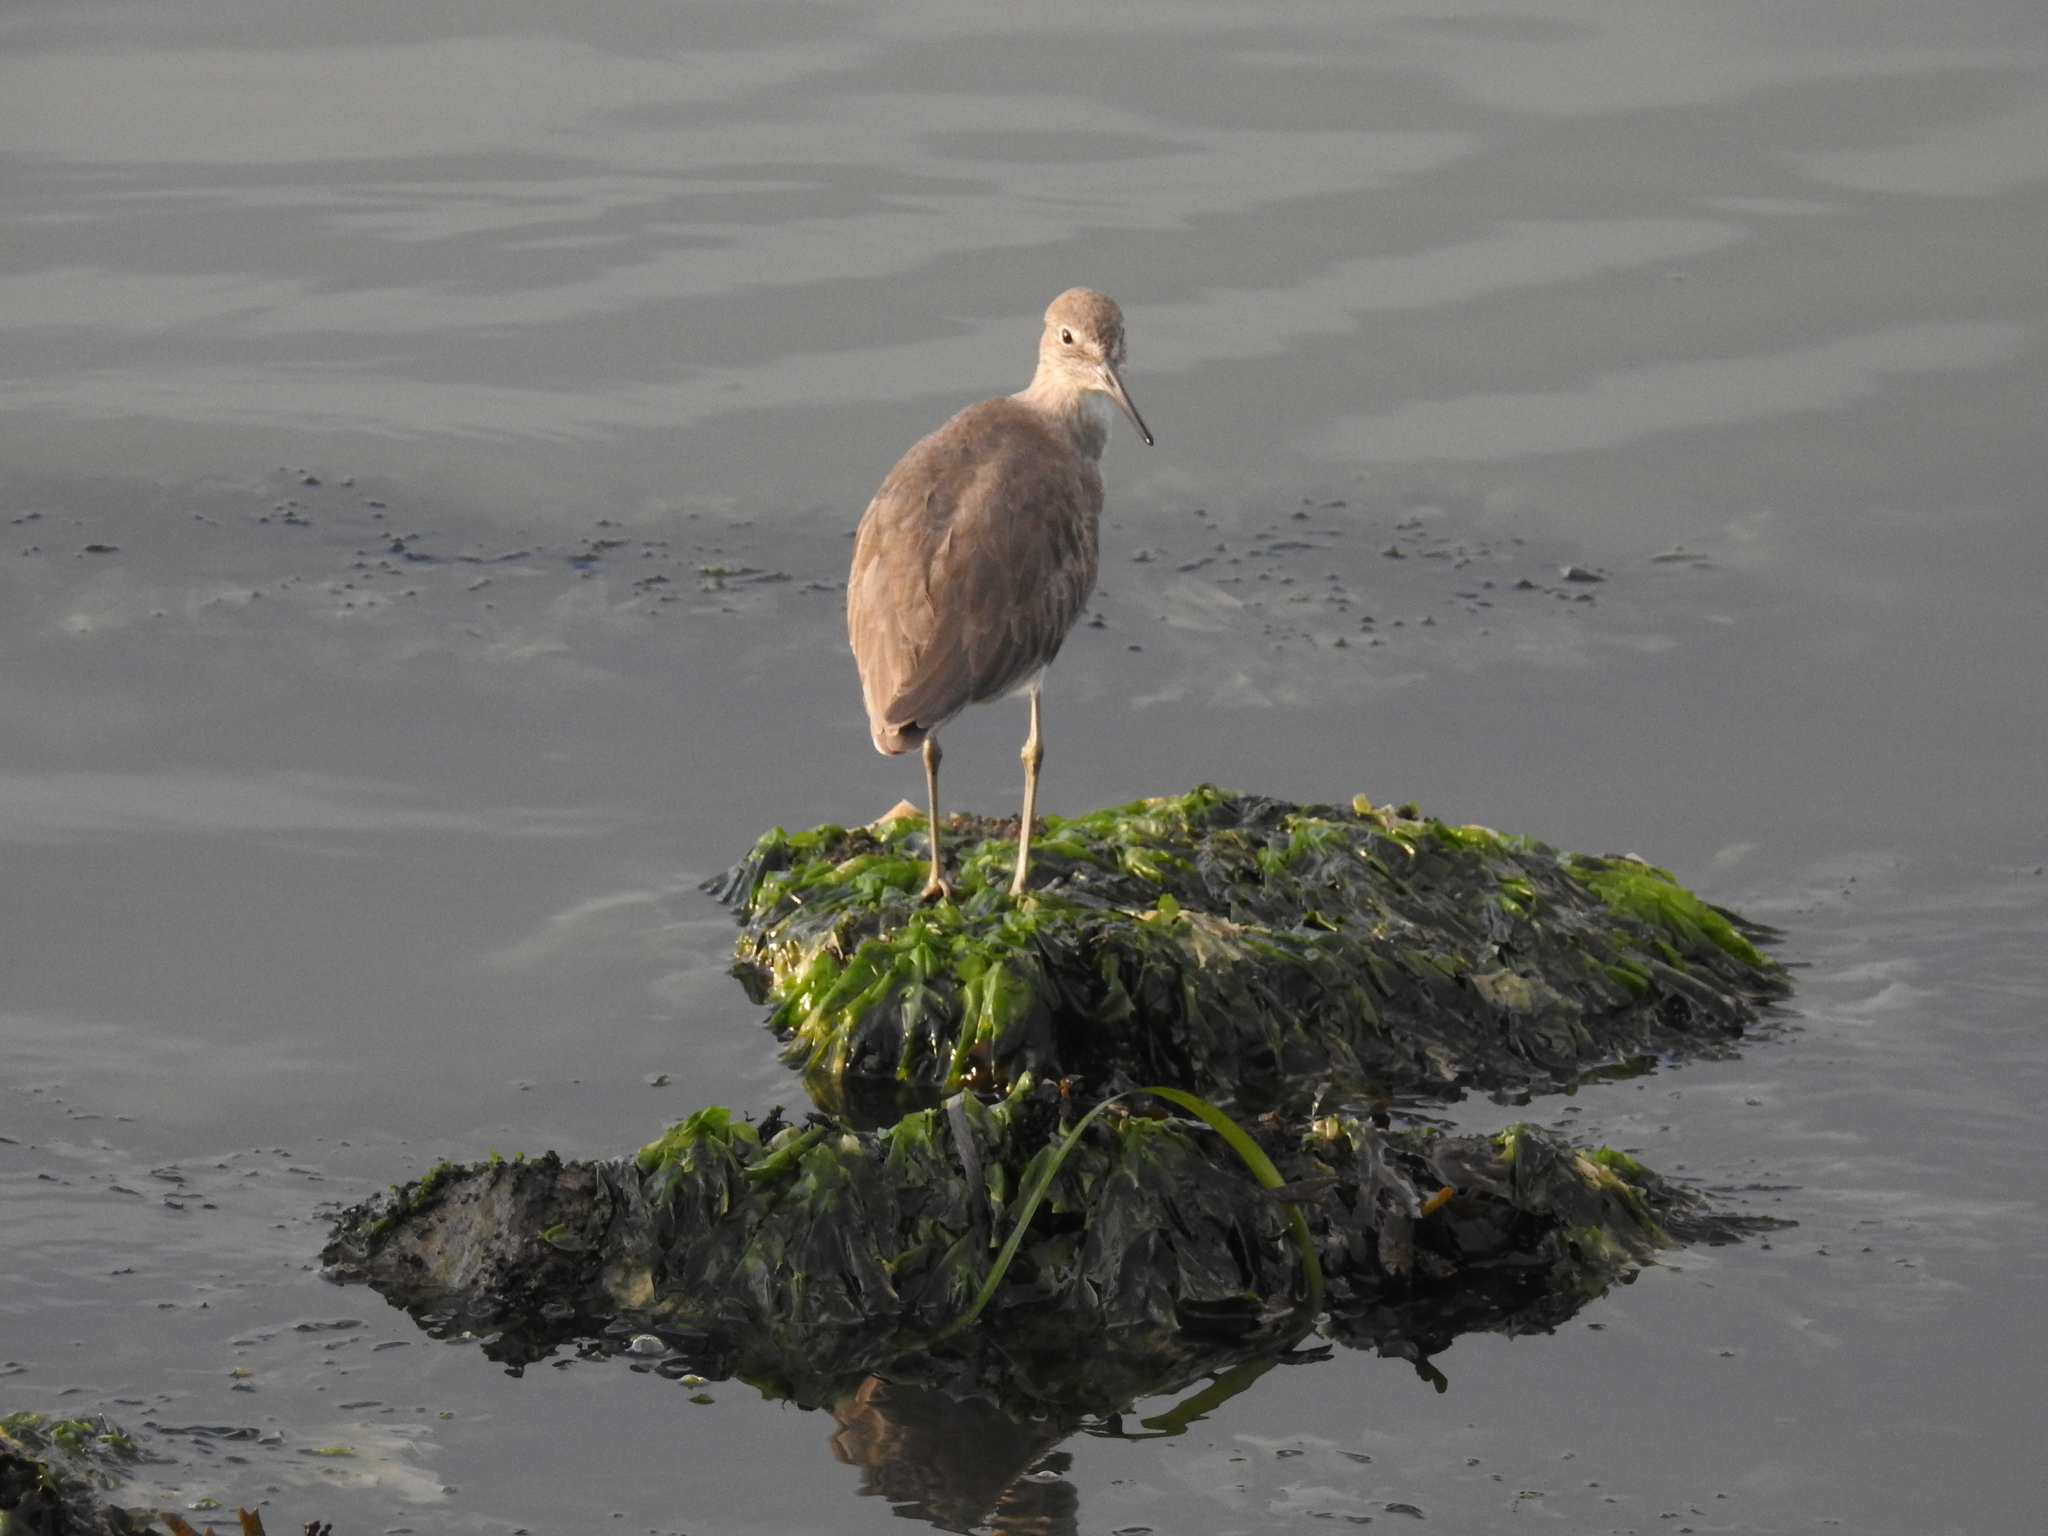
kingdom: Animalia
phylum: Chordata
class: Aves
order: Charadriiformes
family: Scolopacidae
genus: Tringa
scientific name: Tringa semipalmata
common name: Willet
